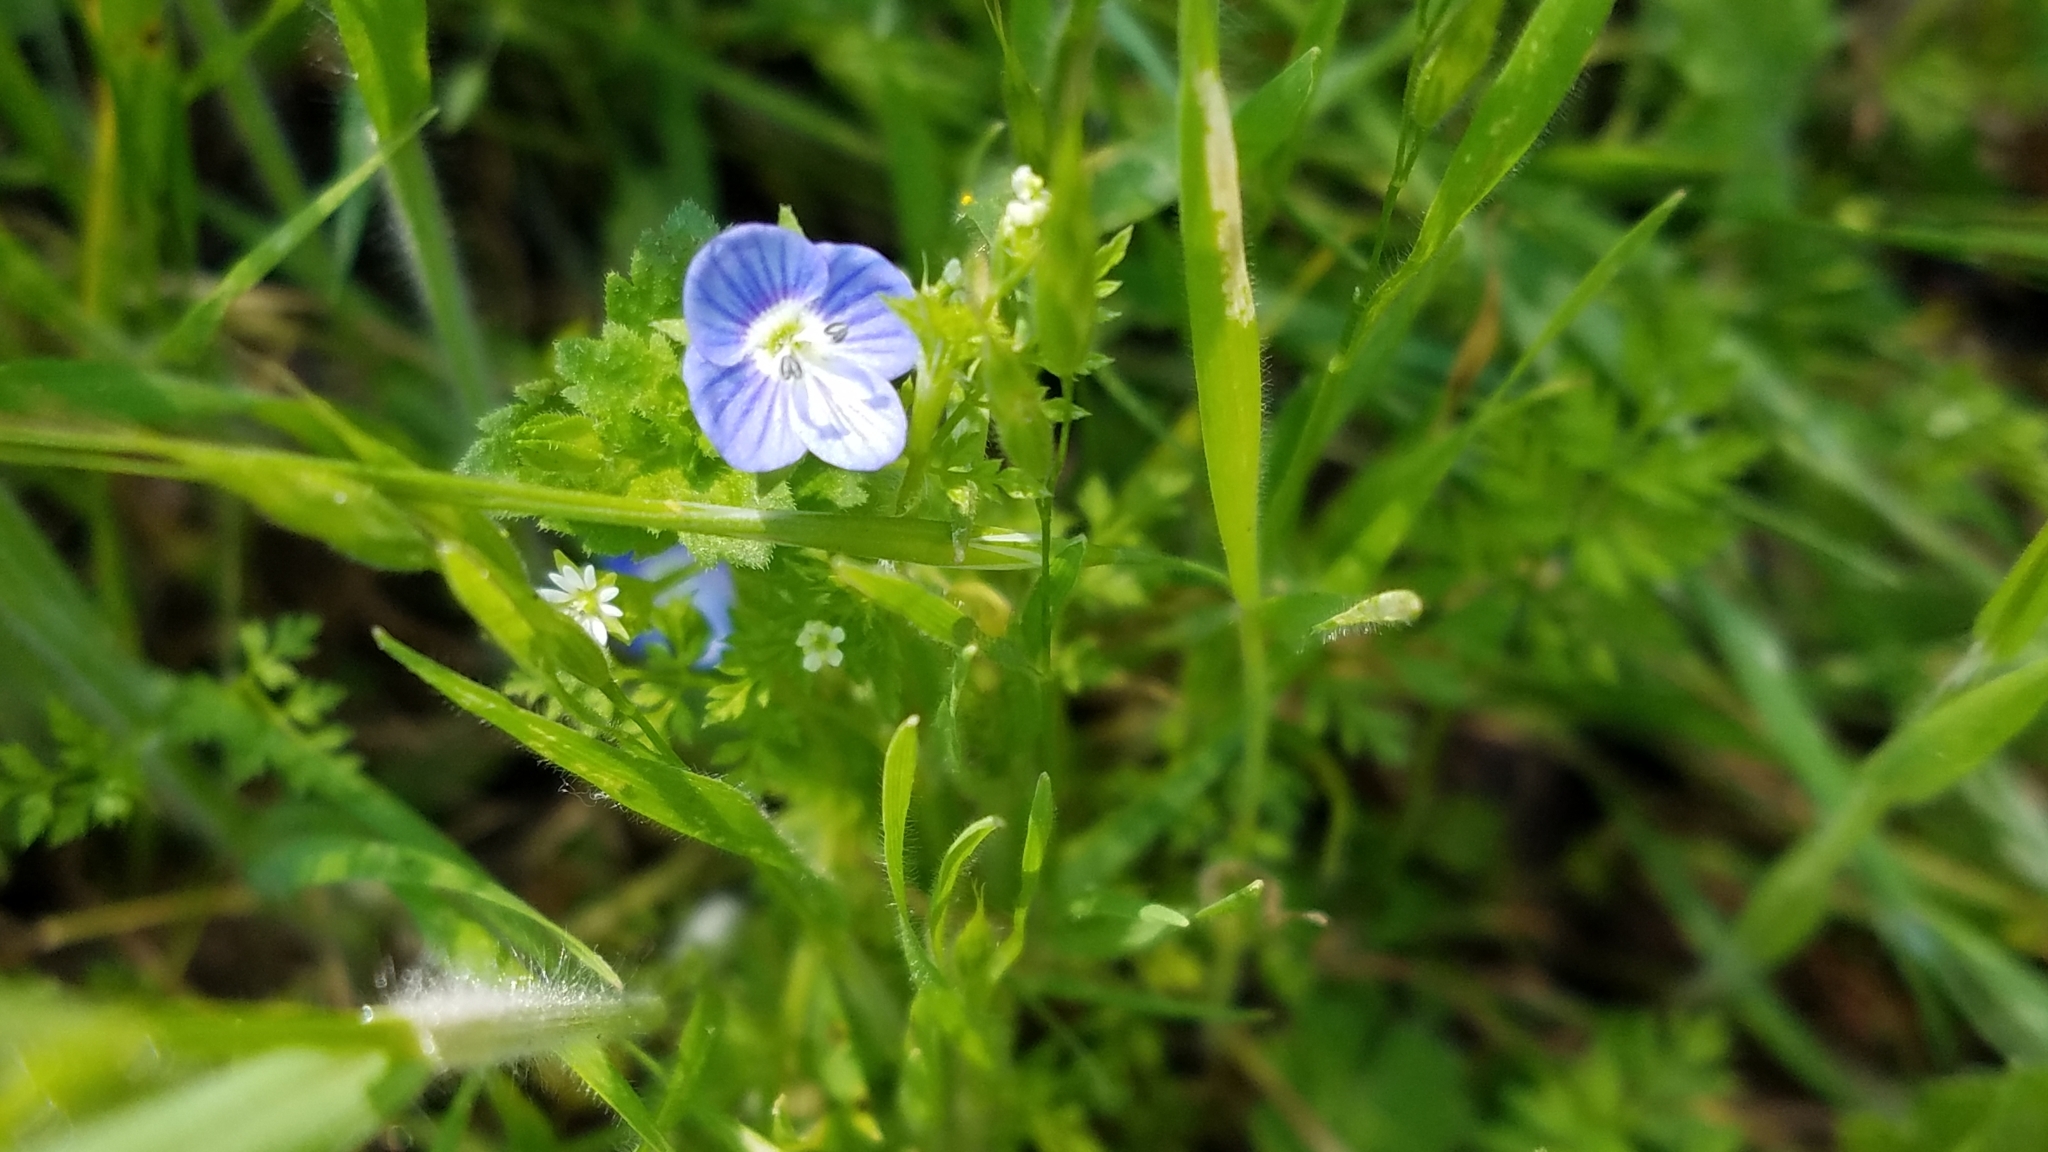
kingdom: Plantae
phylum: Tracheophyta
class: Magnoliopsida
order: Lamiales
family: Plantaginaceae
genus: Veronica
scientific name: Veronica persica
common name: Common field-speedwell
